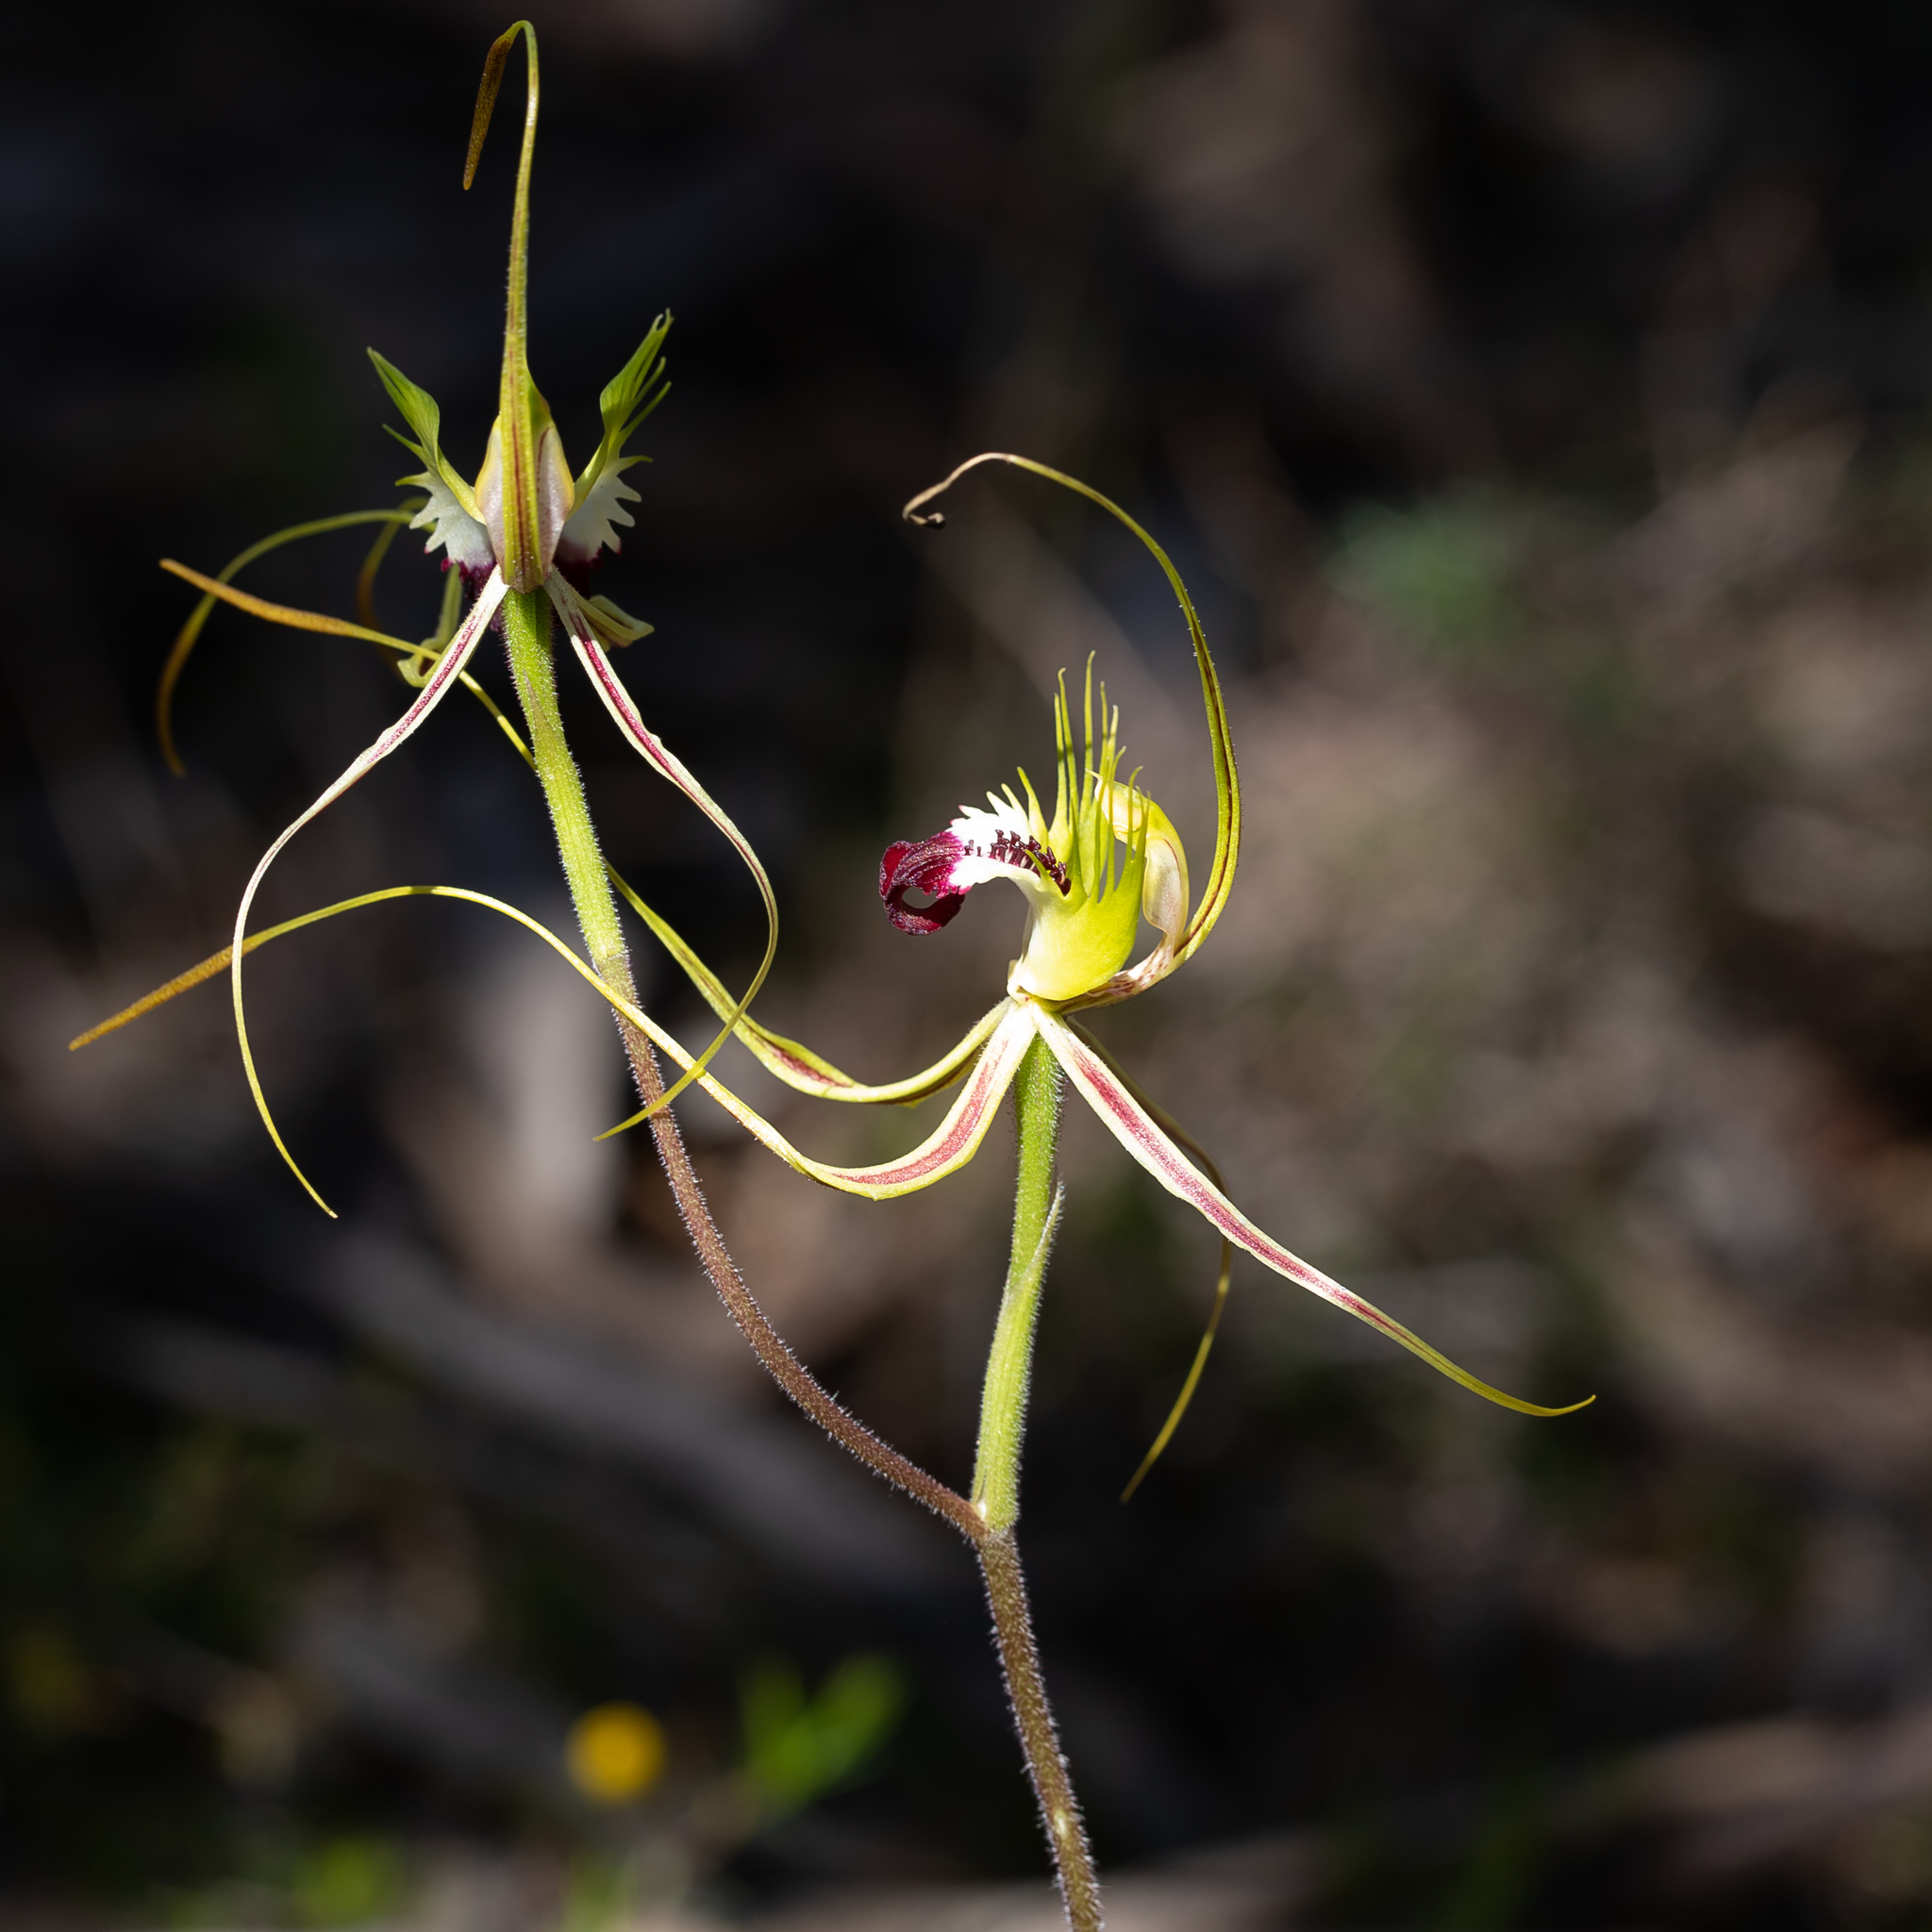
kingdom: Plantae
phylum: Tracheophyta
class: Liliopsida
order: Asparagales
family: Orchidaceae
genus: Caladenia
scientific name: Caladenia tentaculata
